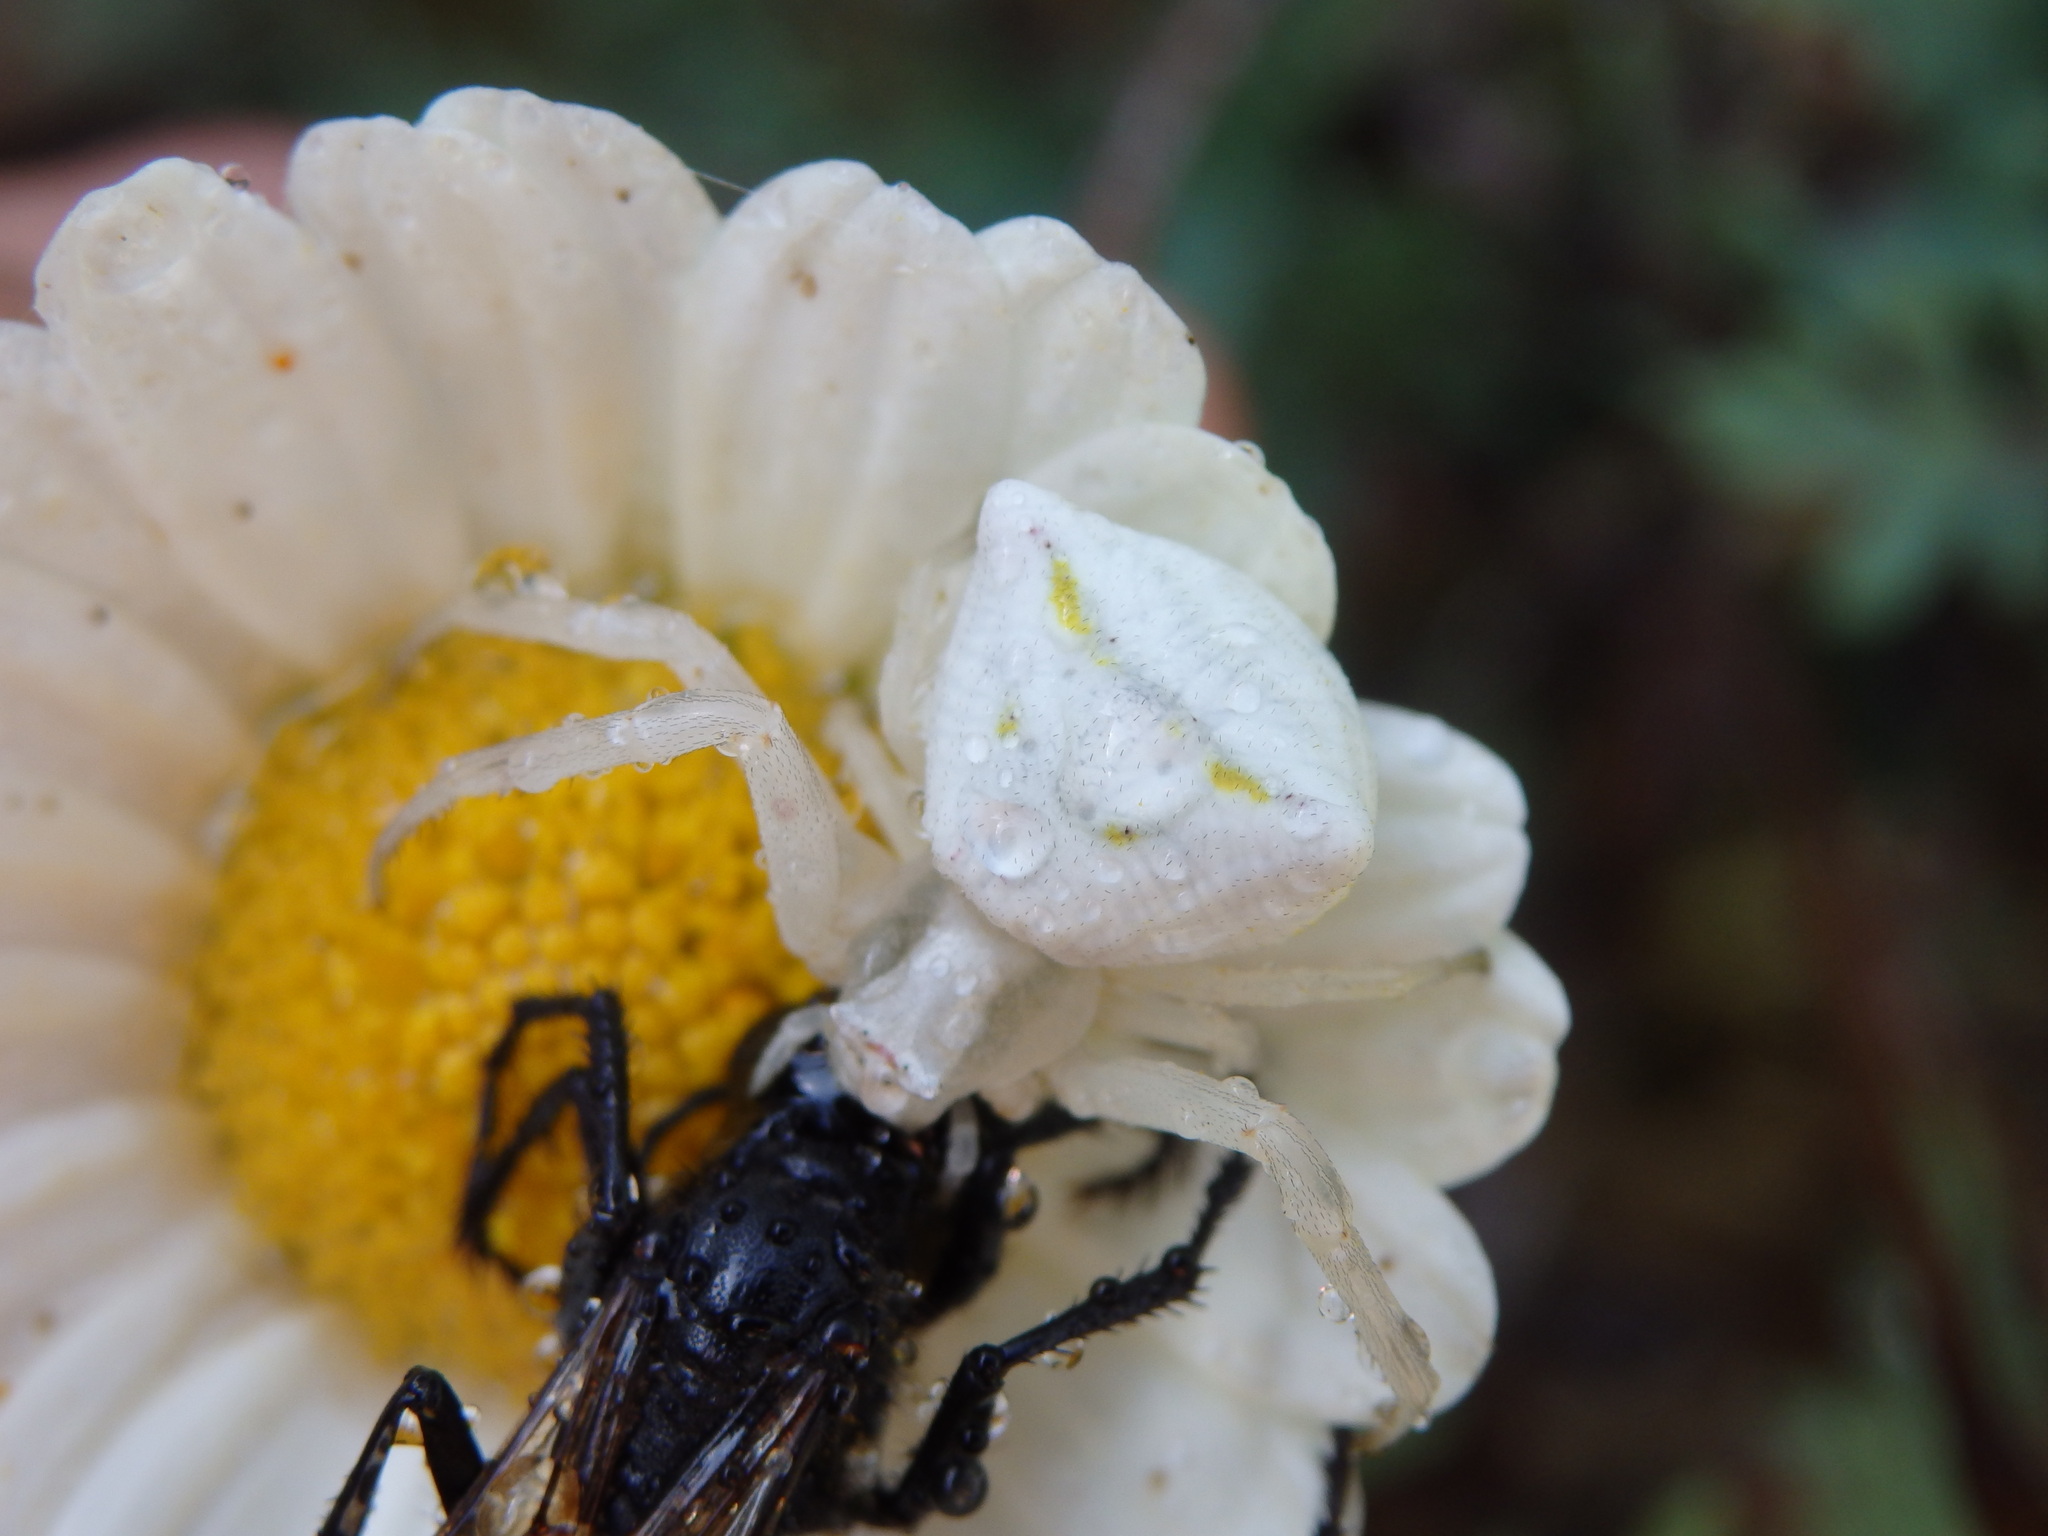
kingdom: Animalia
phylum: Arthropoda
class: Arachnida
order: Araneae
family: Thomisidae
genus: Thomisus
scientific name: Thomisus onustus
